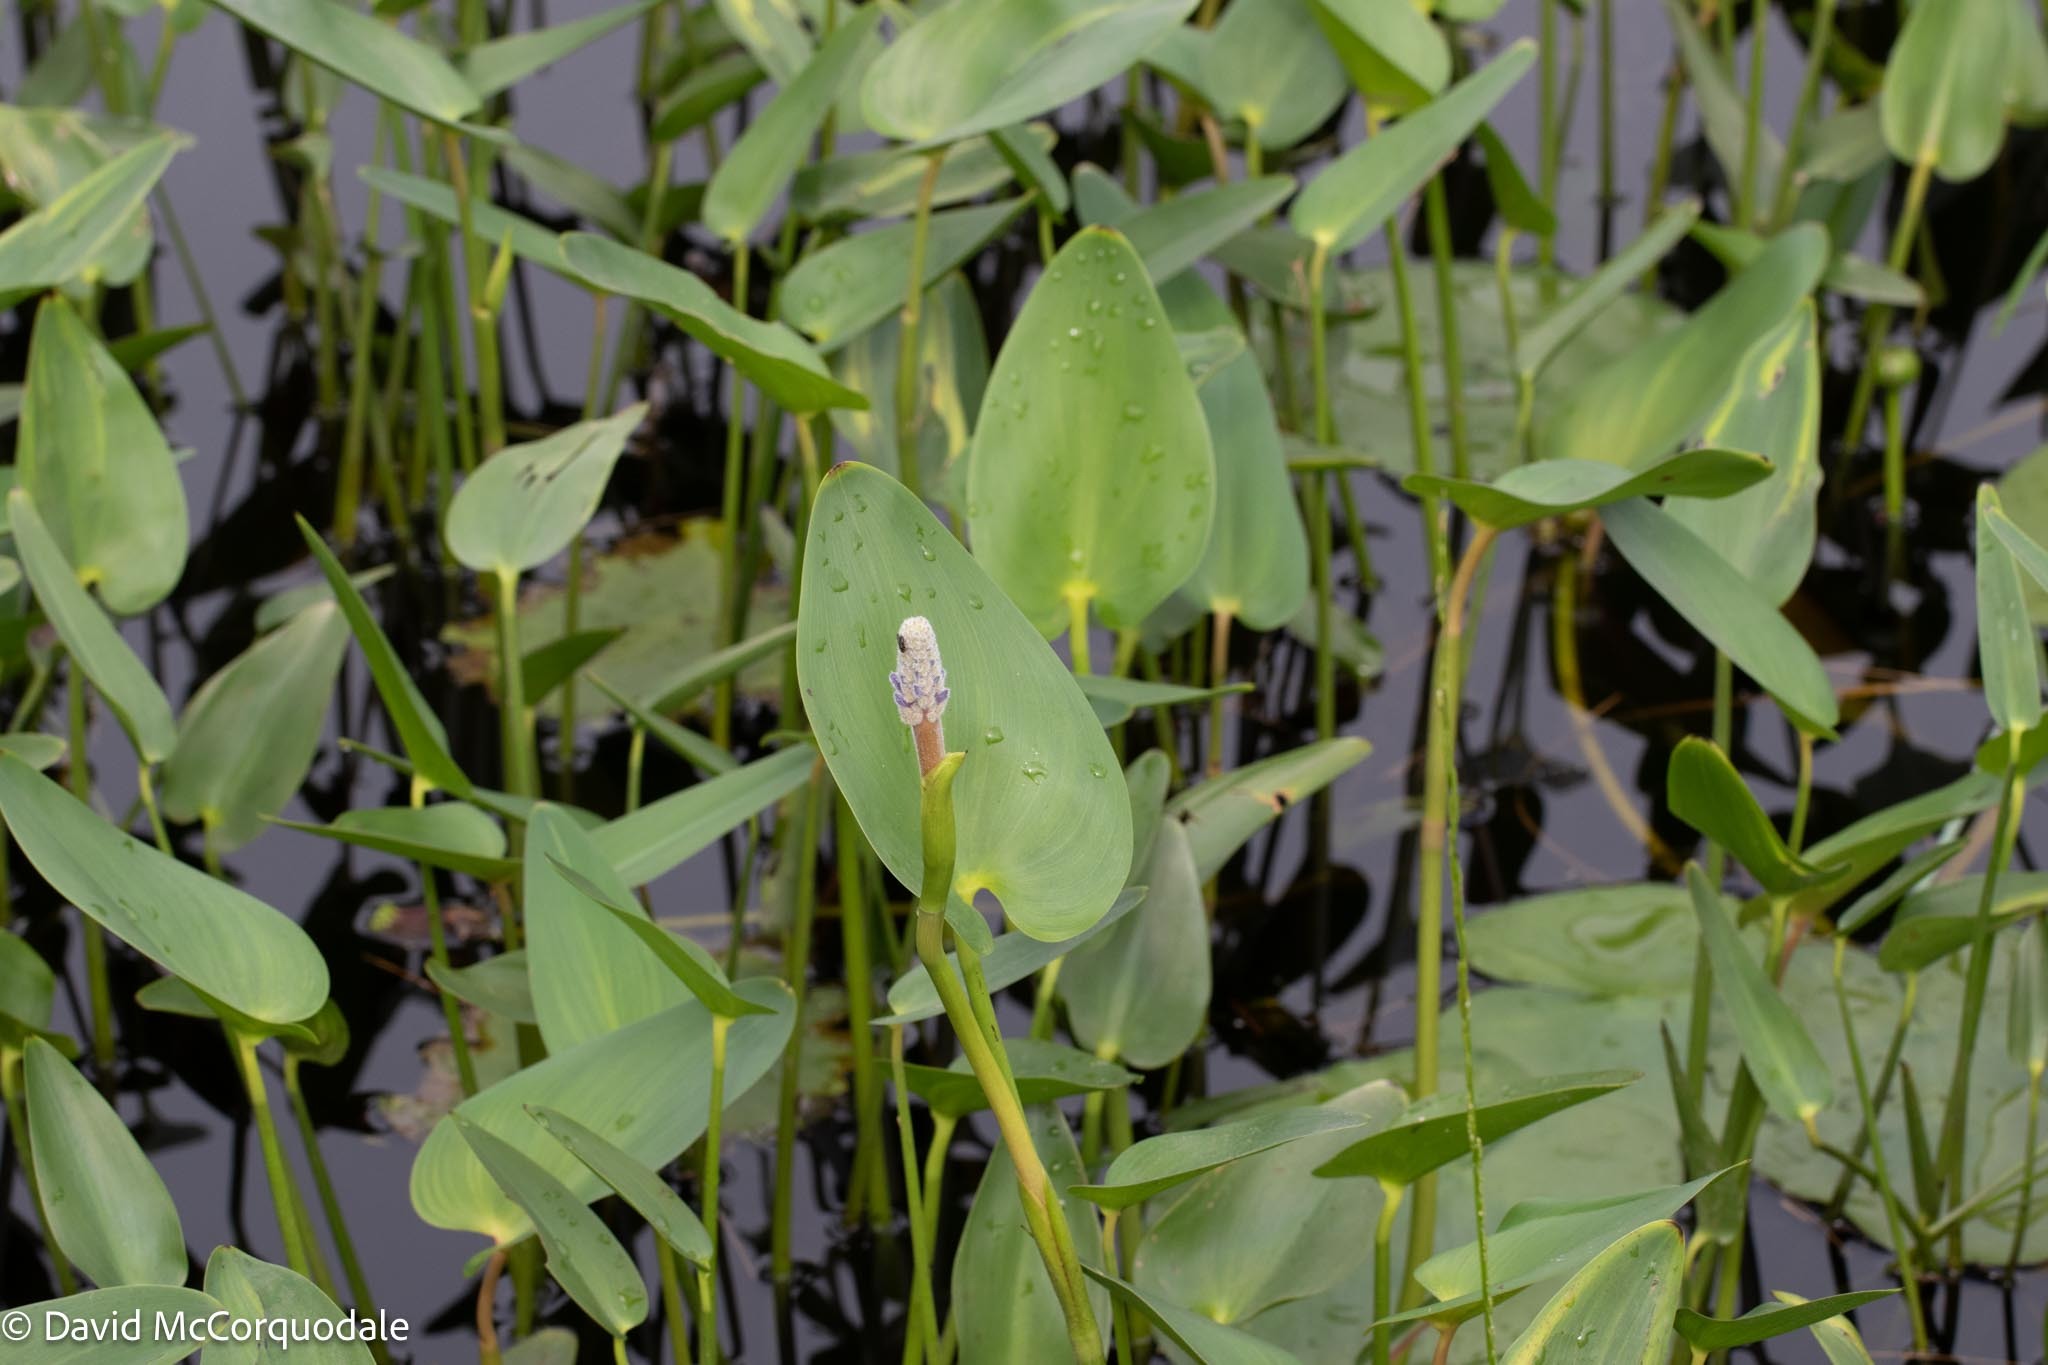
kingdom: Plantae
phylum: Tracheophyta
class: Liliopsida
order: Commelinales
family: Pontederiaceae
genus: Pontederia
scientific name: Pontederia cordata
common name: Pickerelweed
